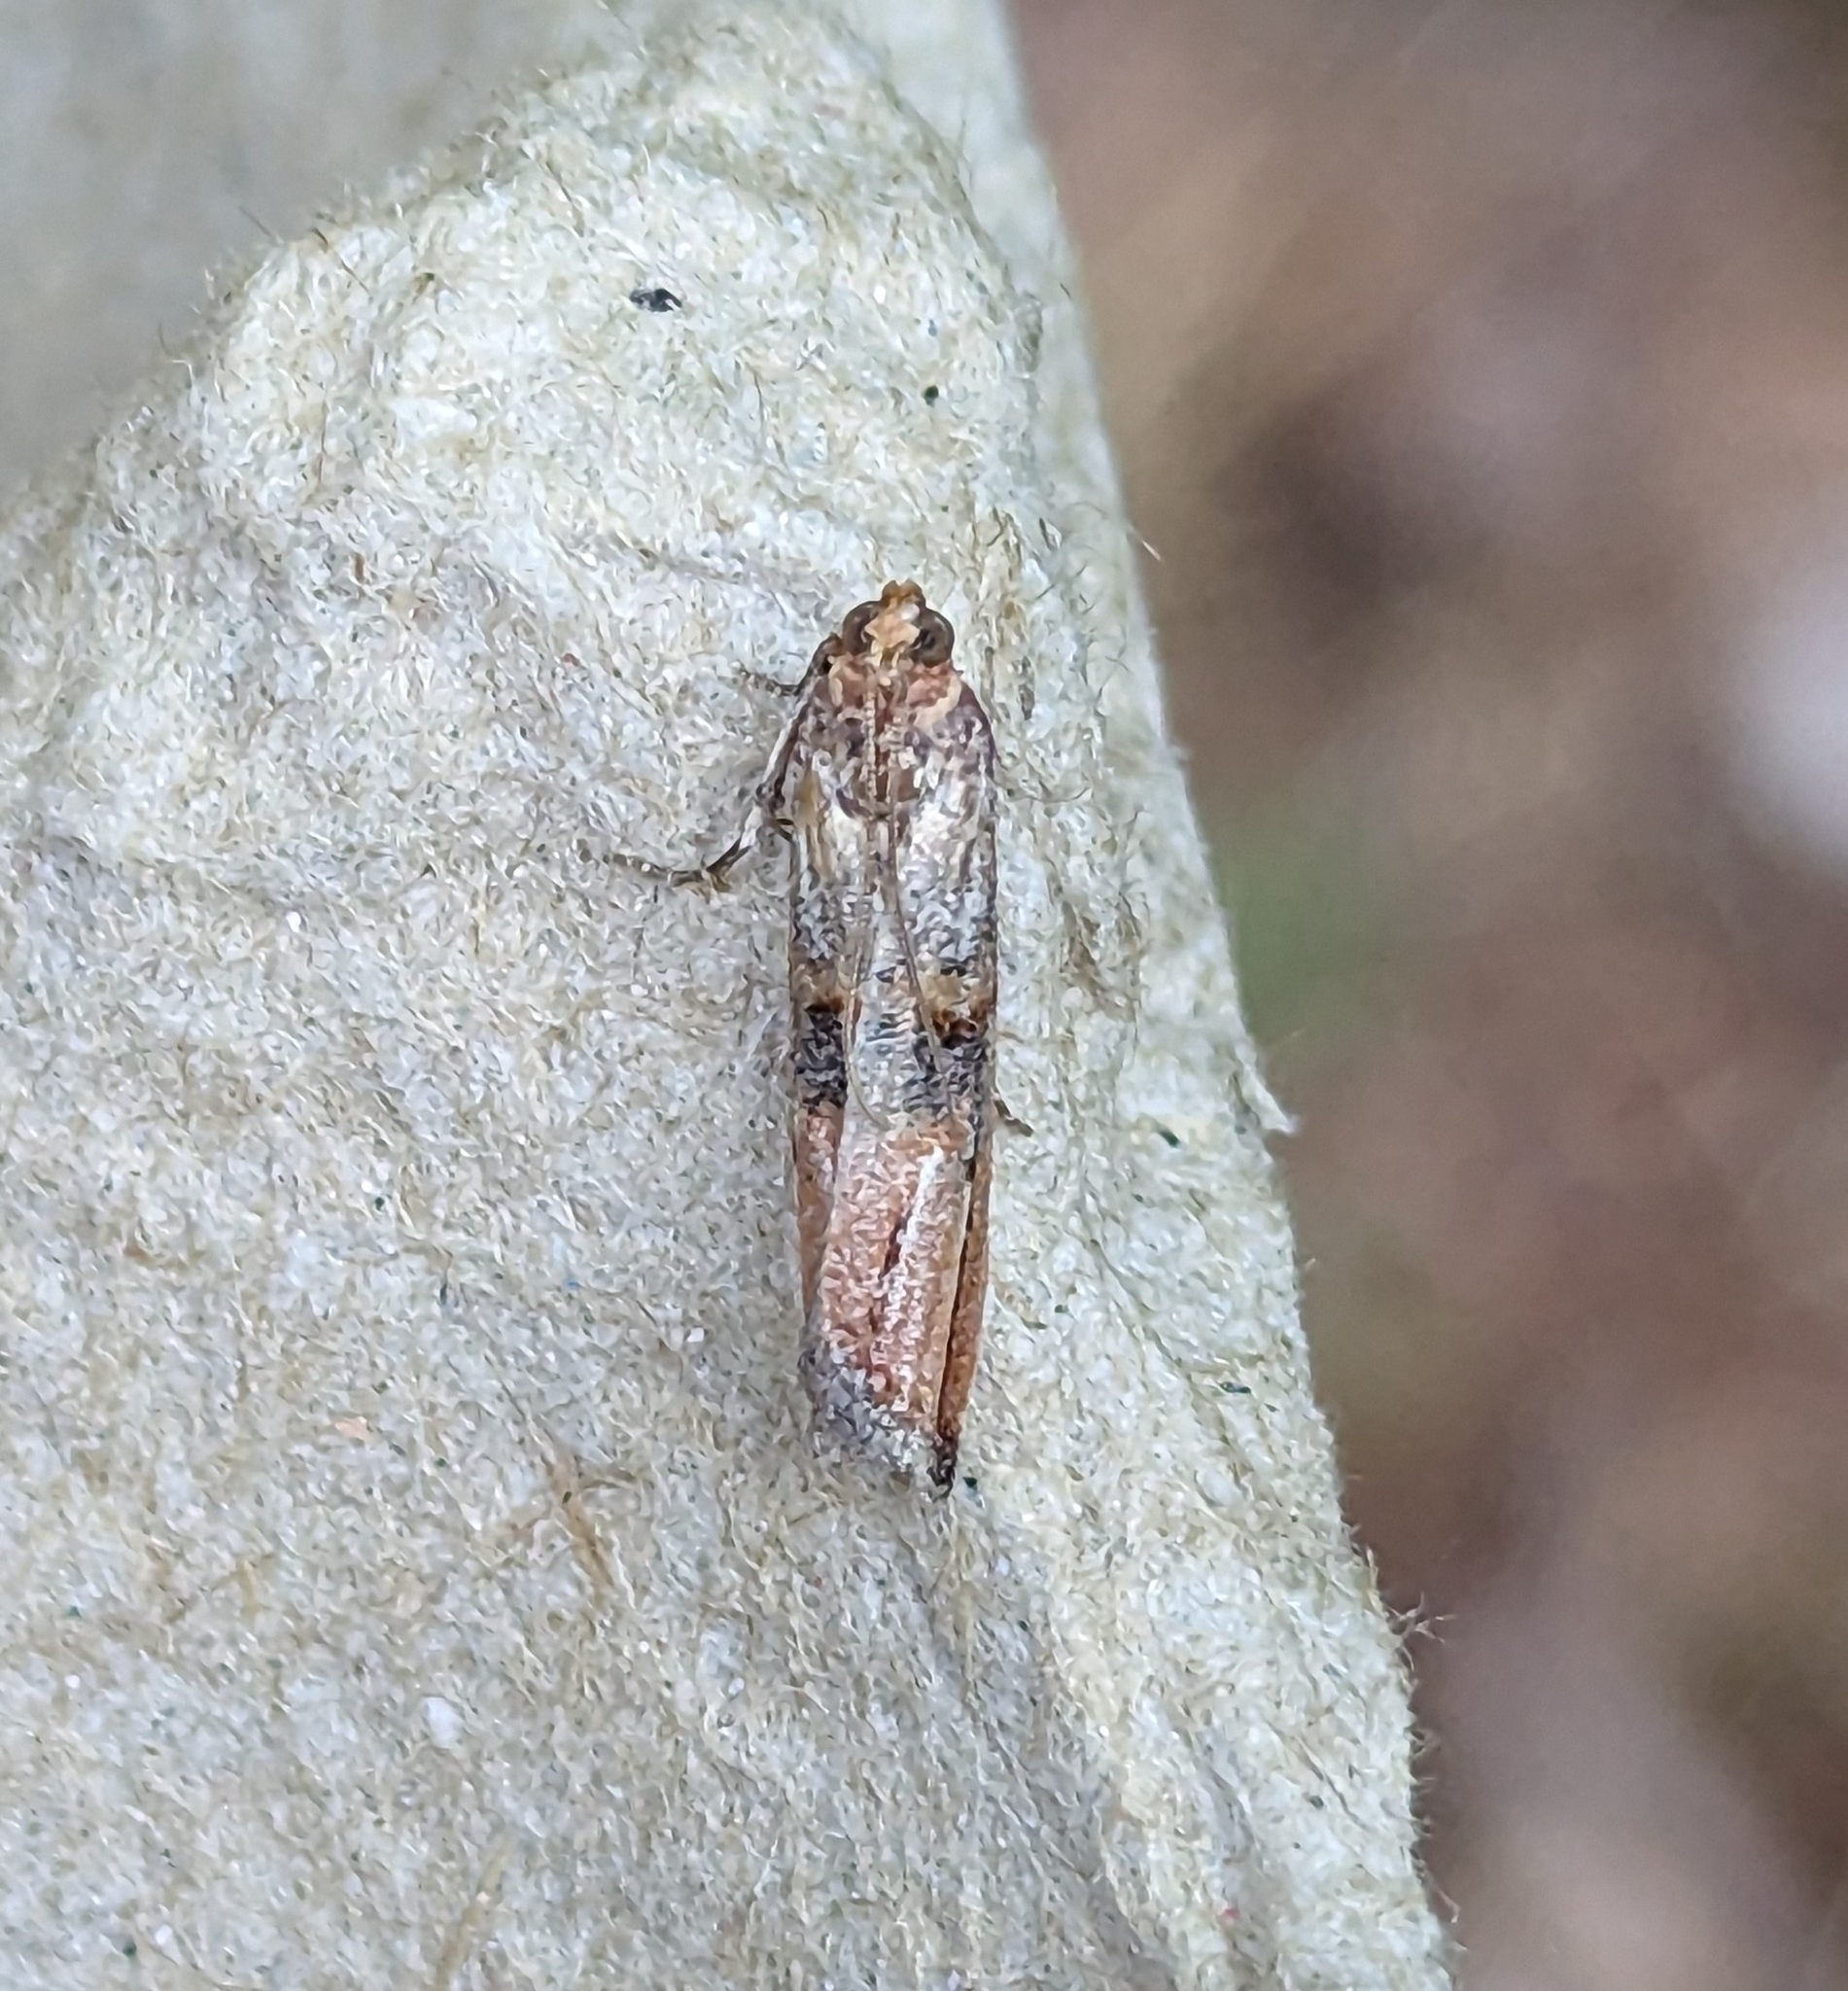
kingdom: Animalia
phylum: Arthropoda
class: Insecta
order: Lepidoptera
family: Pyralidae
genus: Dasypyga
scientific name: Dasypyga alternosquamella
